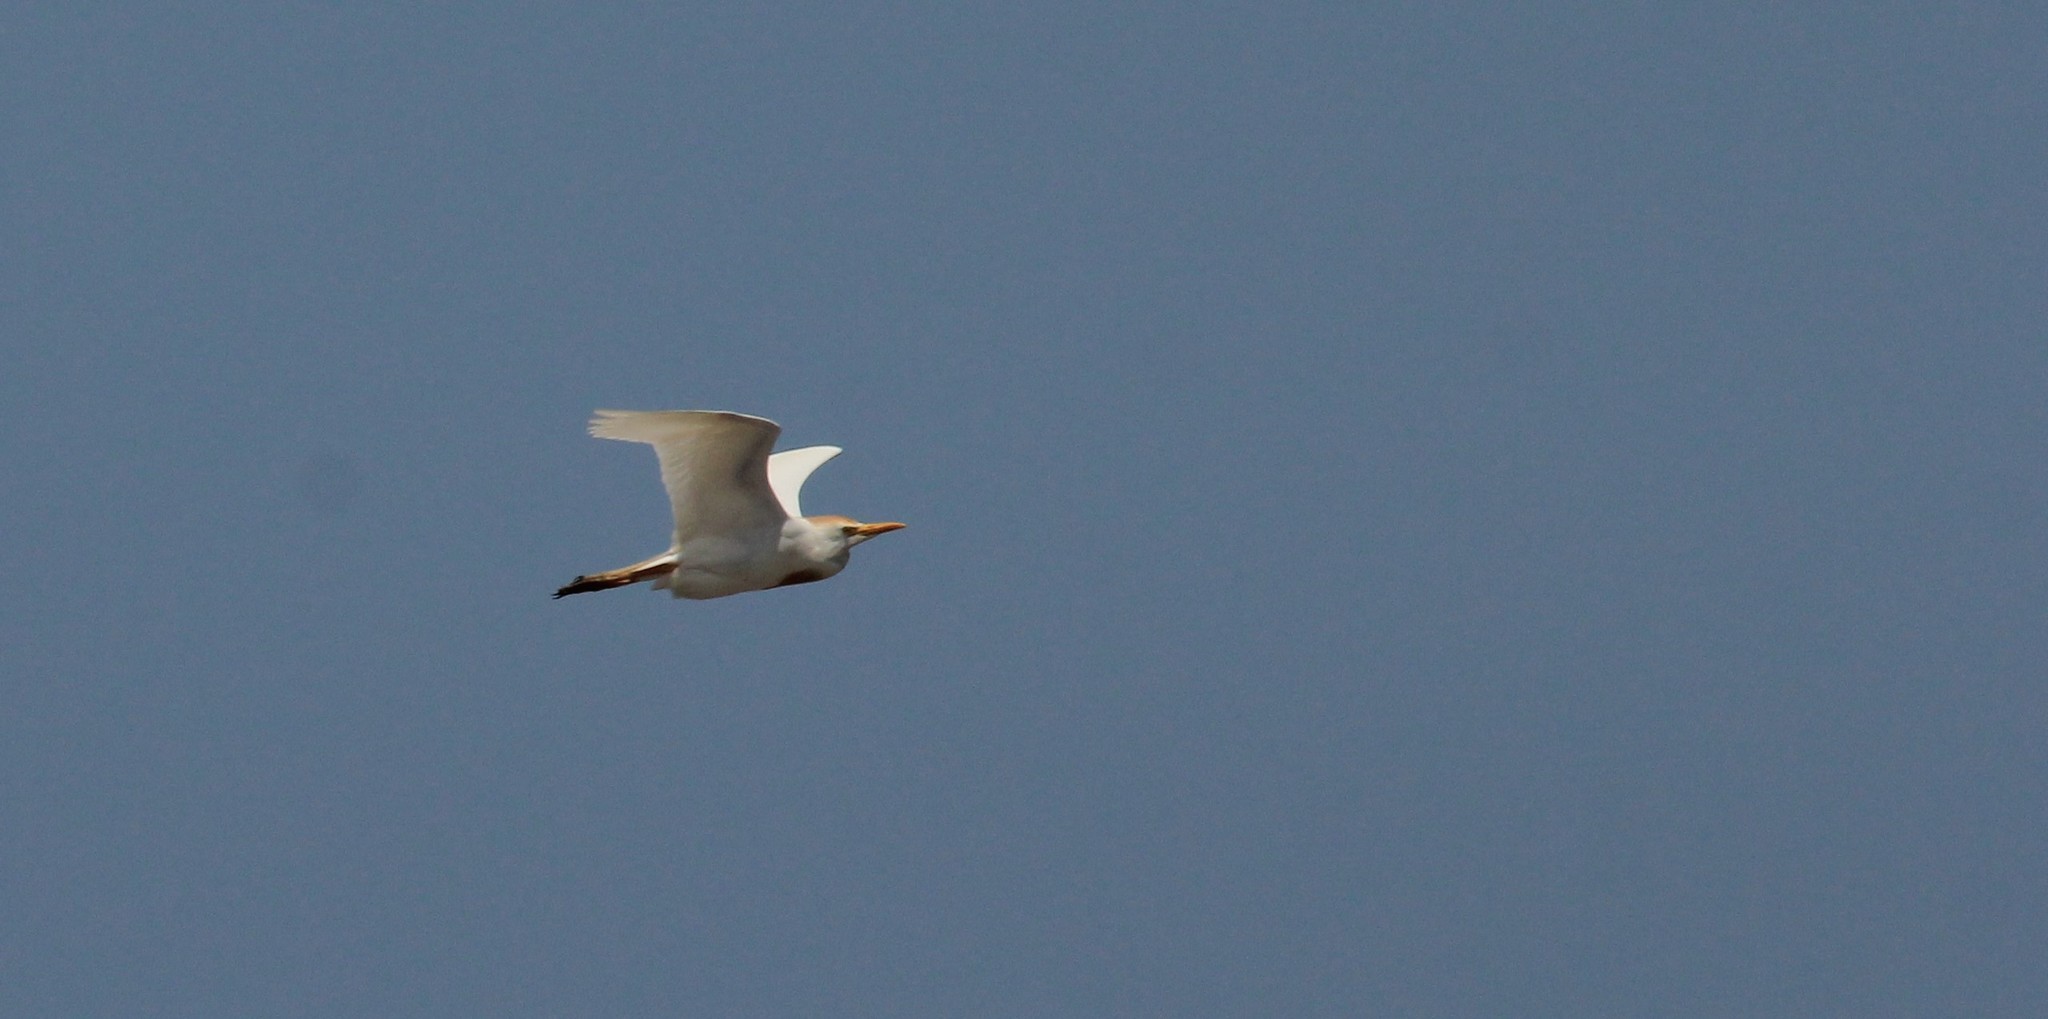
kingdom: Animalia
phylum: Chordata
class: Aves
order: Pelecaniformes
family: Ardeidae
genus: Bubulcus
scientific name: Bubulcus ibis
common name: Cattle egret
